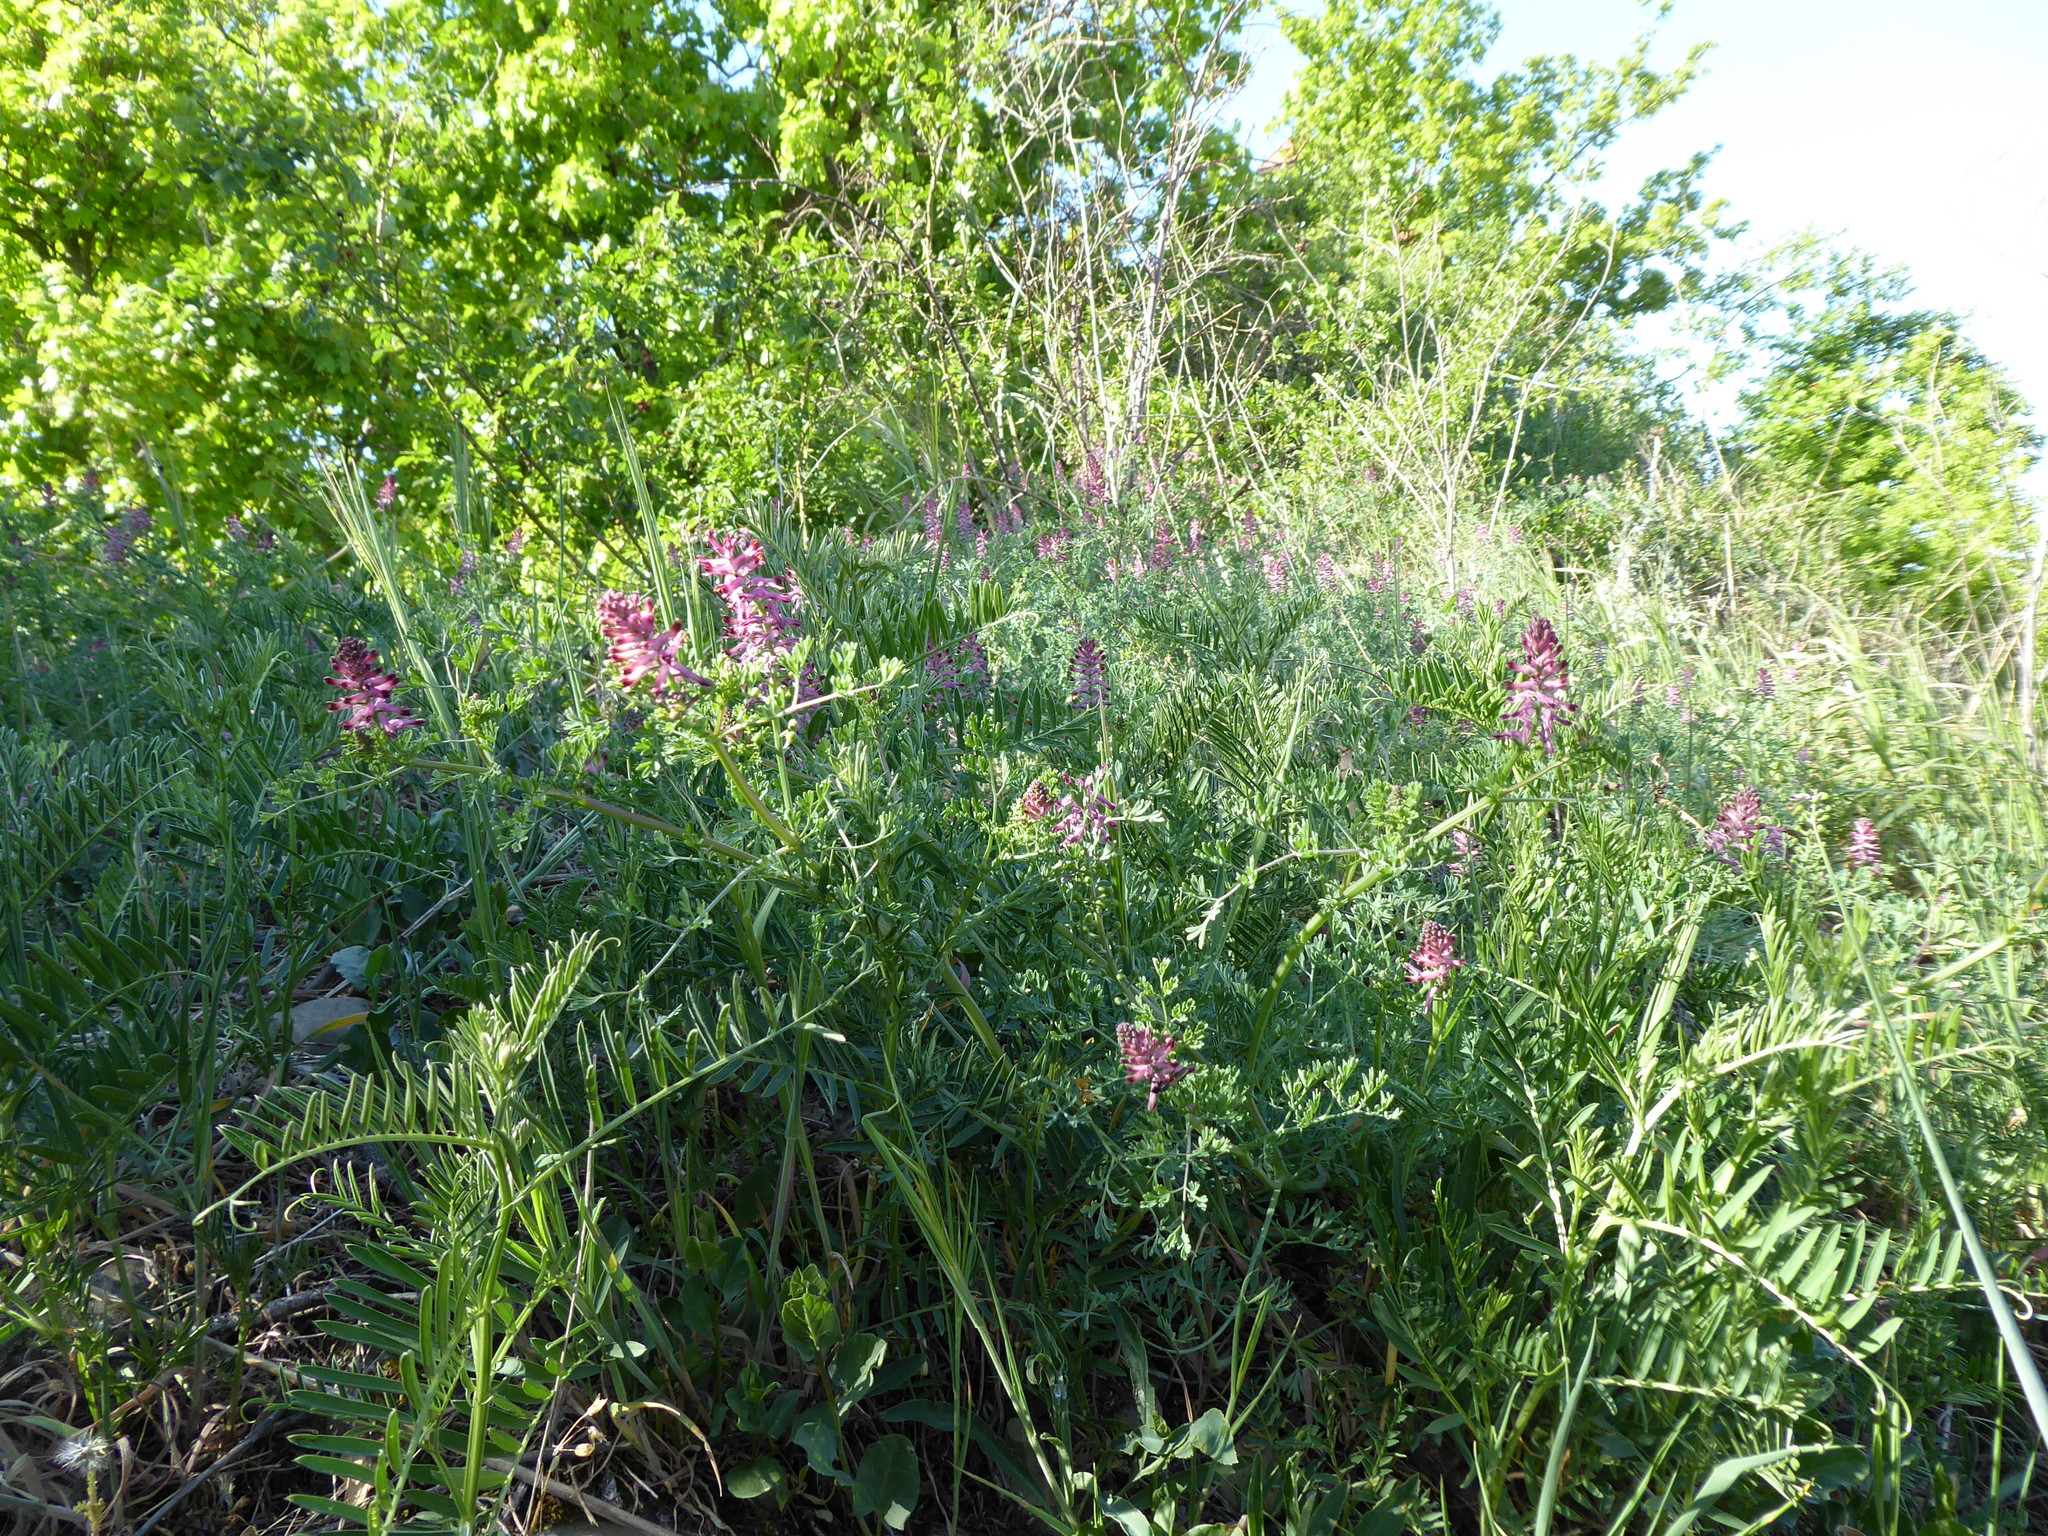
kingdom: Plantae
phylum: Tracheophyta
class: Magnoliopsida
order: Ranunculales
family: Papaveraceae
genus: Fumaria
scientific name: Fumaria officinalis
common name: Common fumitory
